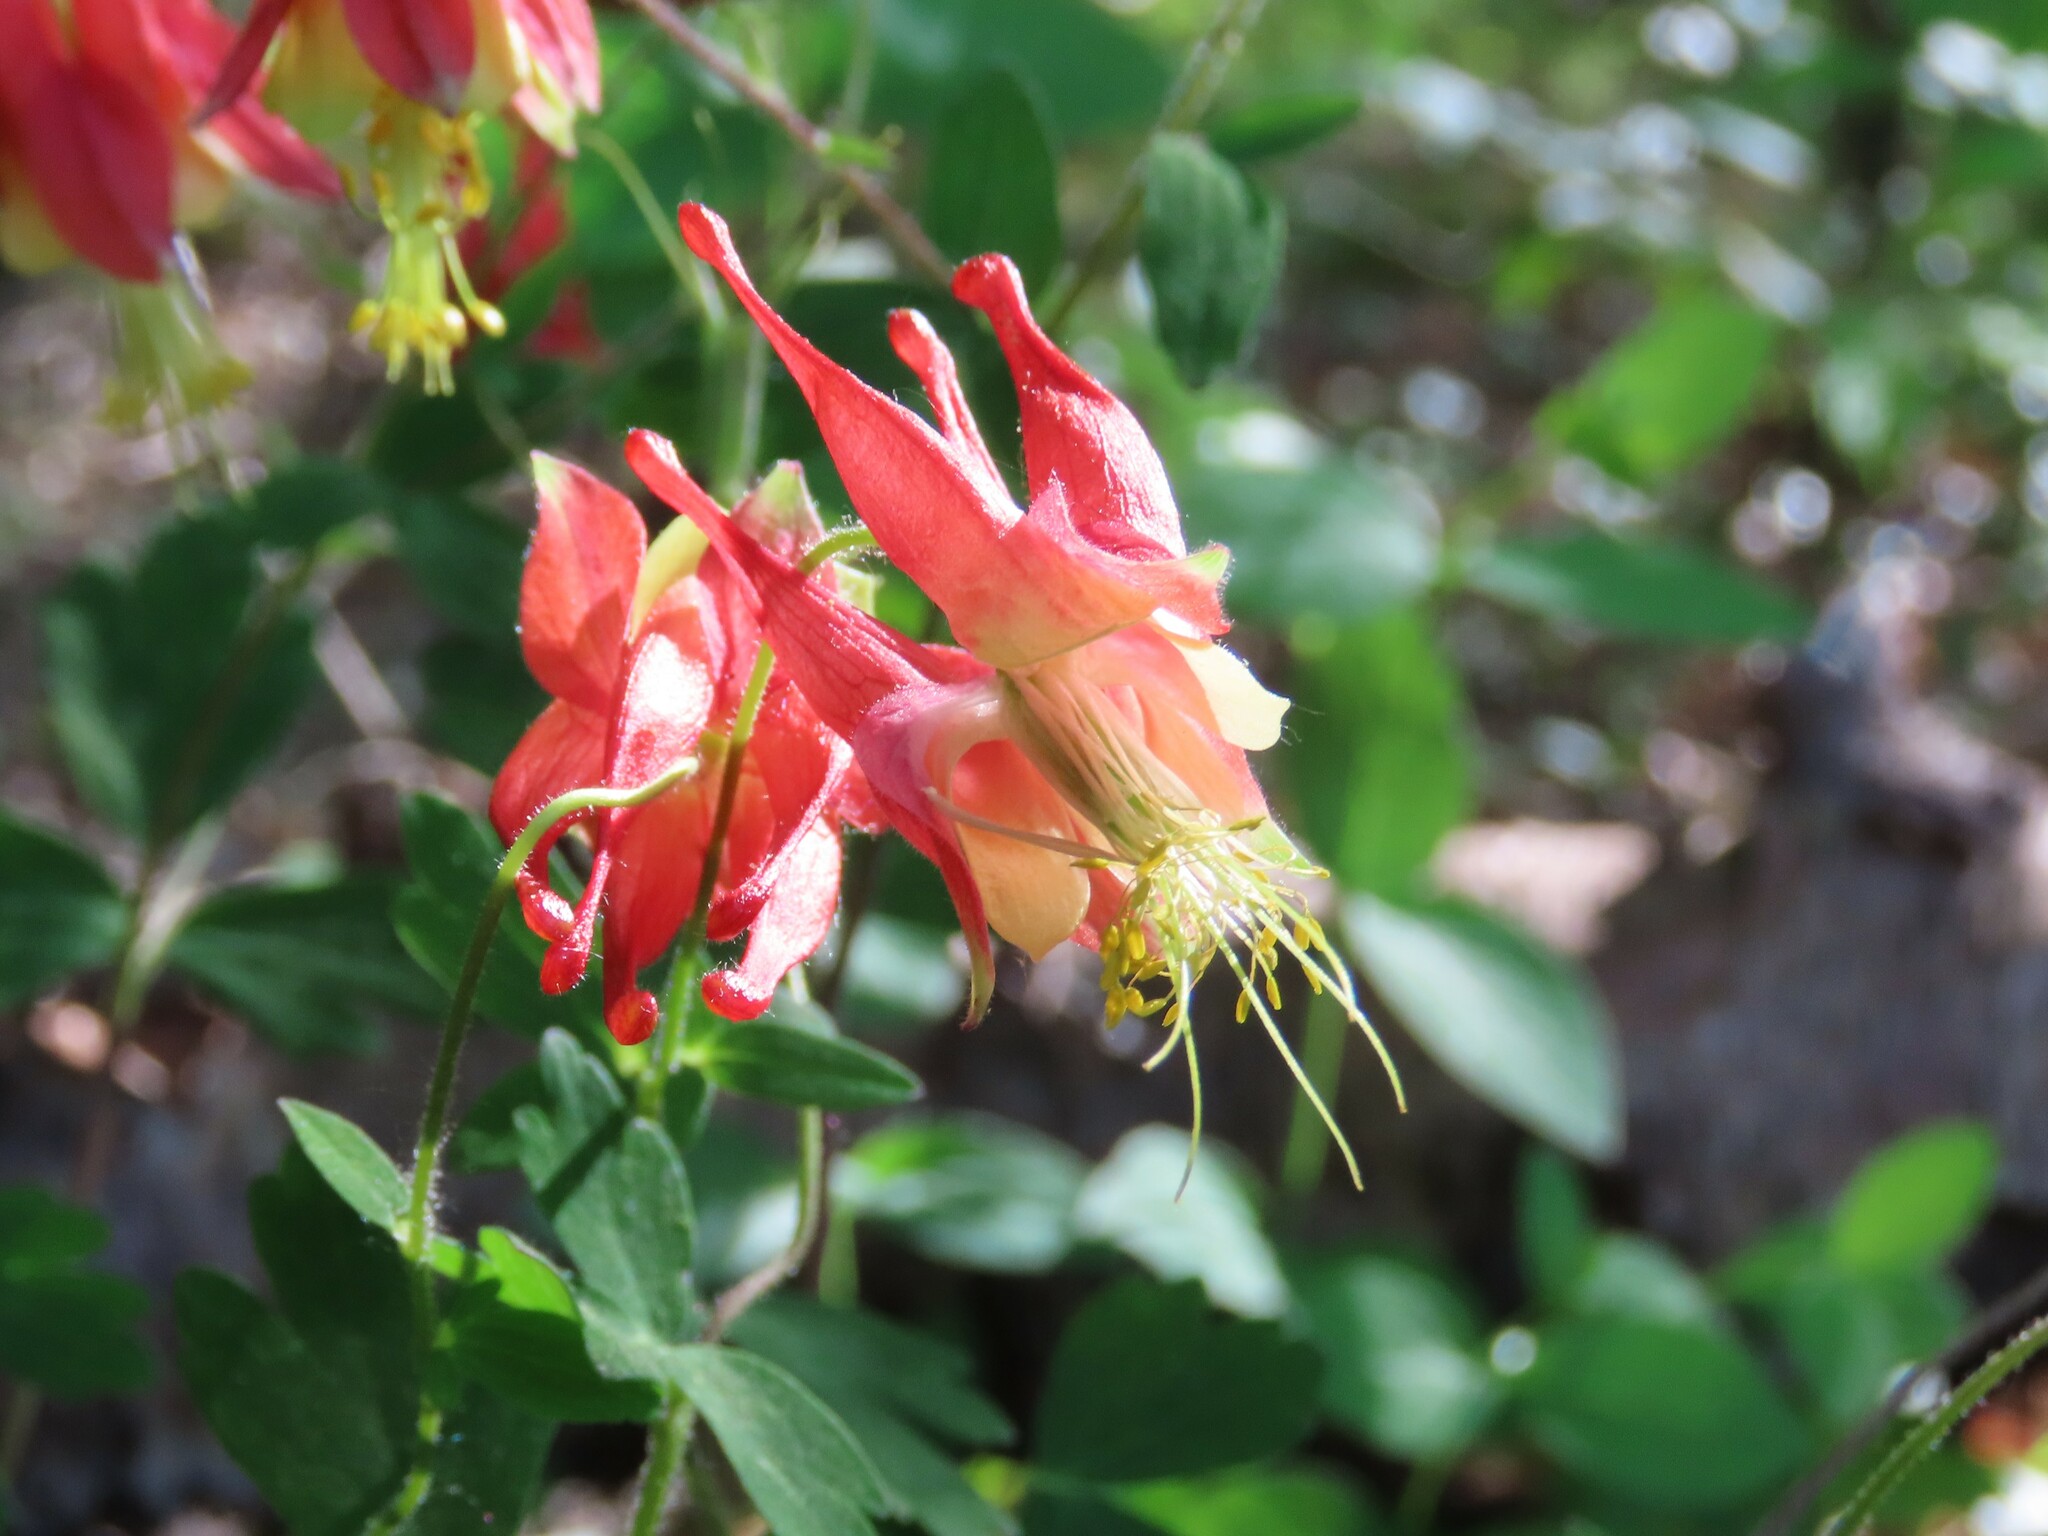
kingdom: Plantae
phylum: Tracheophyta
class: Magnoliopsida
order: Ranunculales
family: Ranunculaceae
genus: Aquilegia
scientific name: Aquilegia canadensis
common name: American columbine
